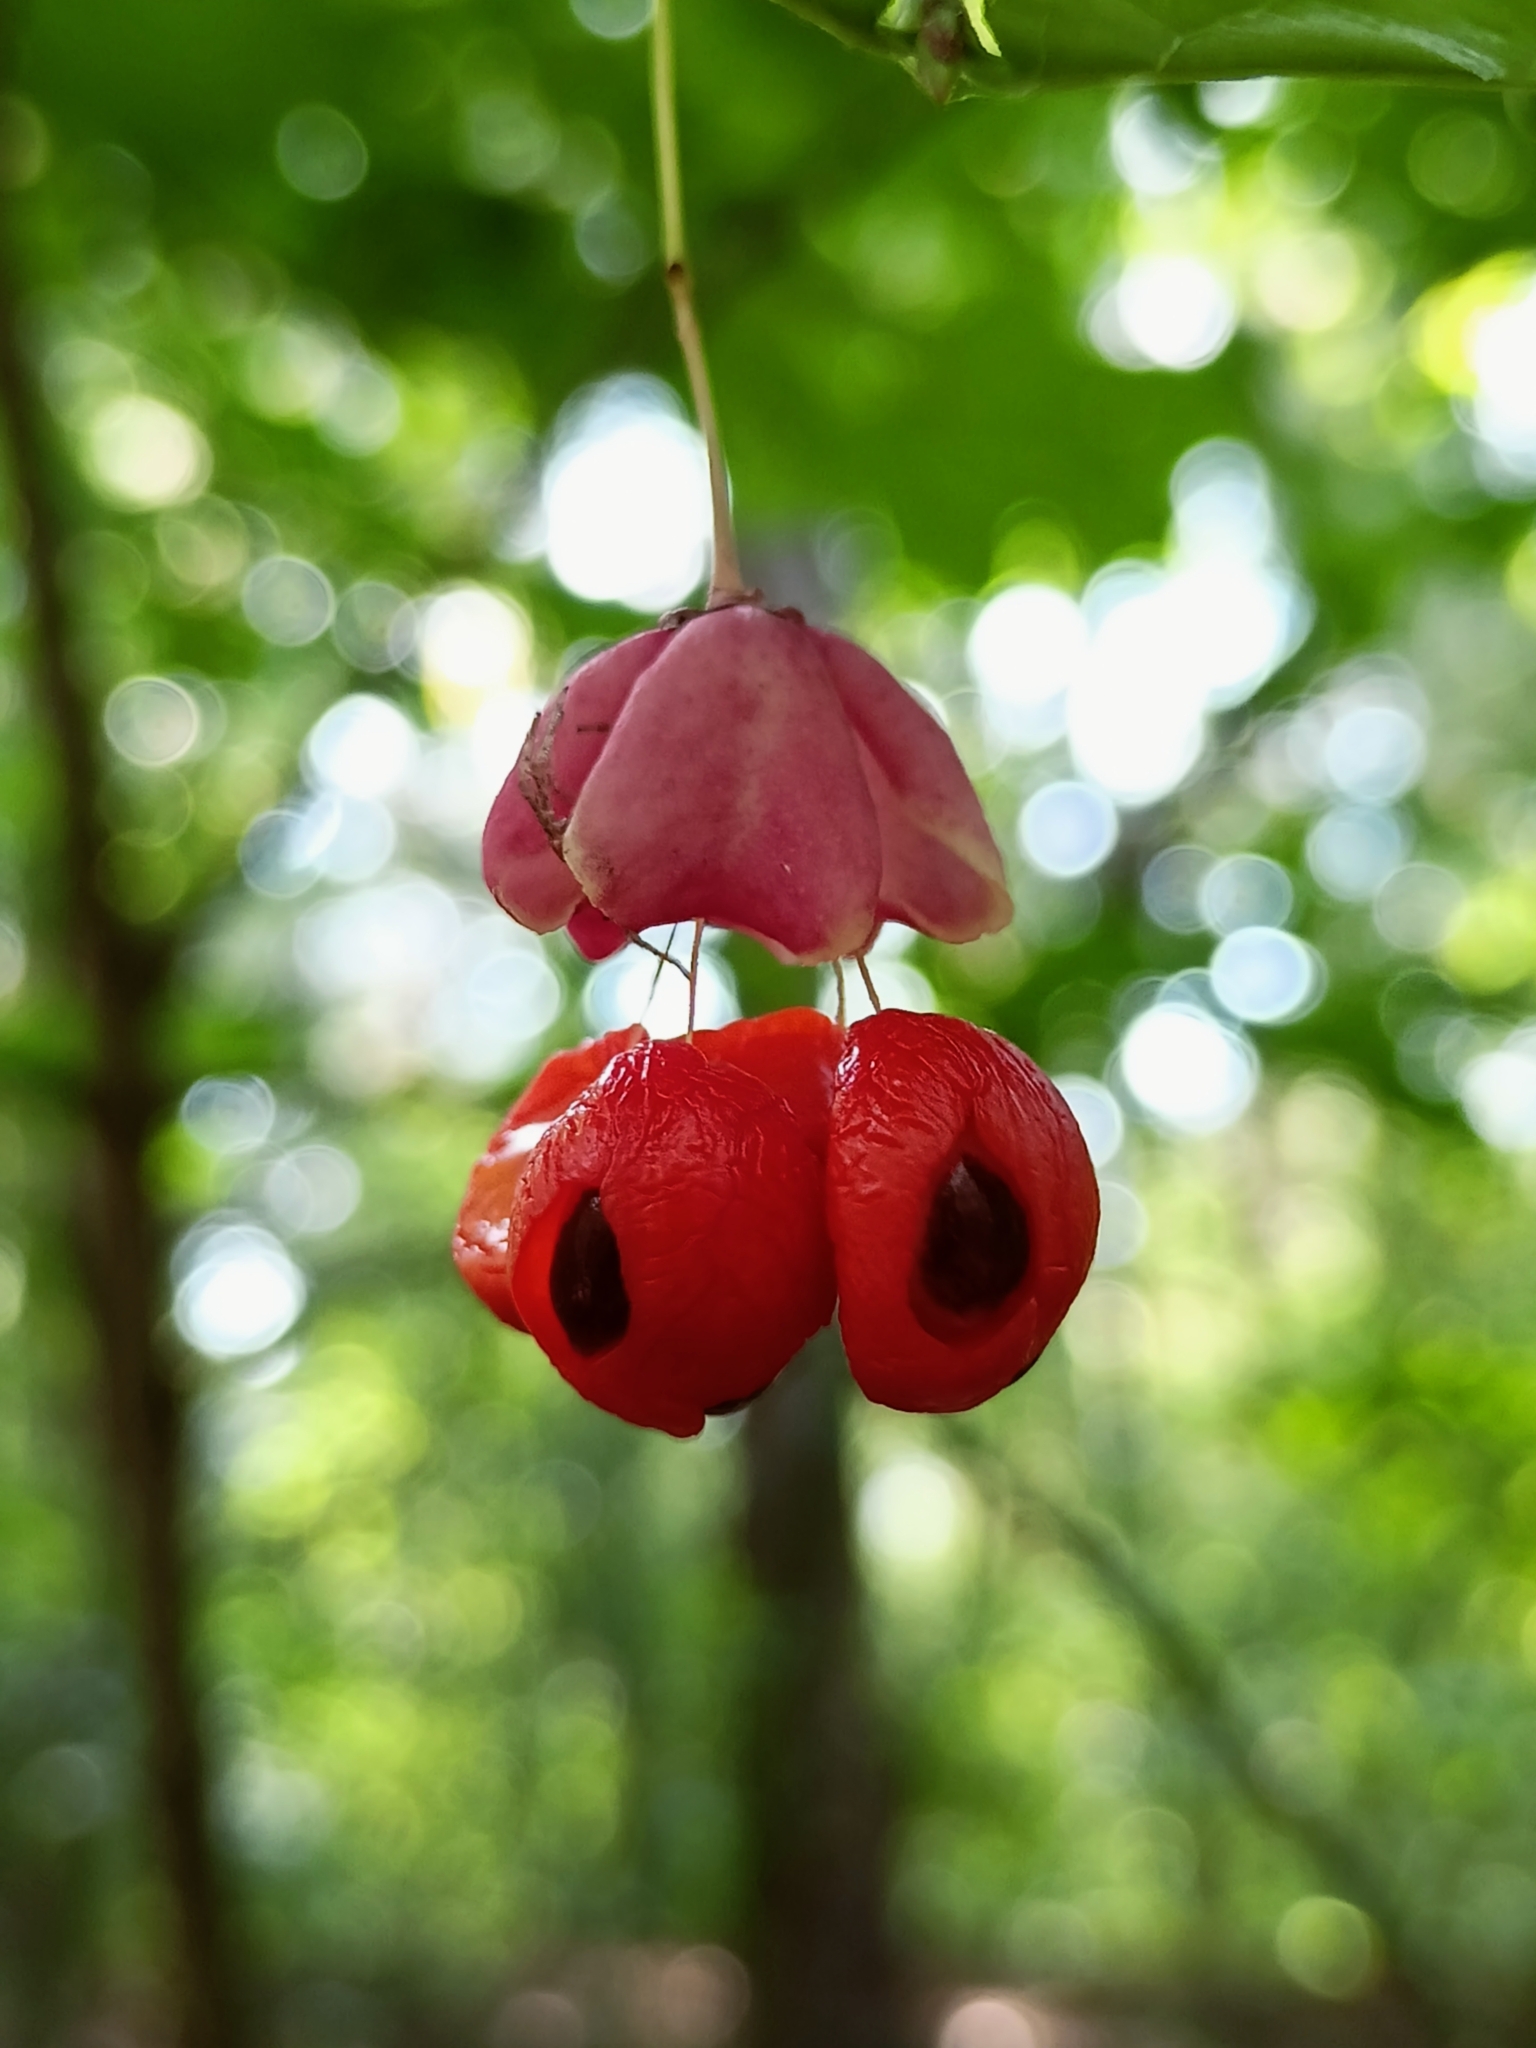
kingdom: Plantae
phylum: Tracheophyta
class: Magnoliopsida
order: Celastrales
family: Celastraceae
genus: Euonymus
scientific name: Euonymus verrucosus
